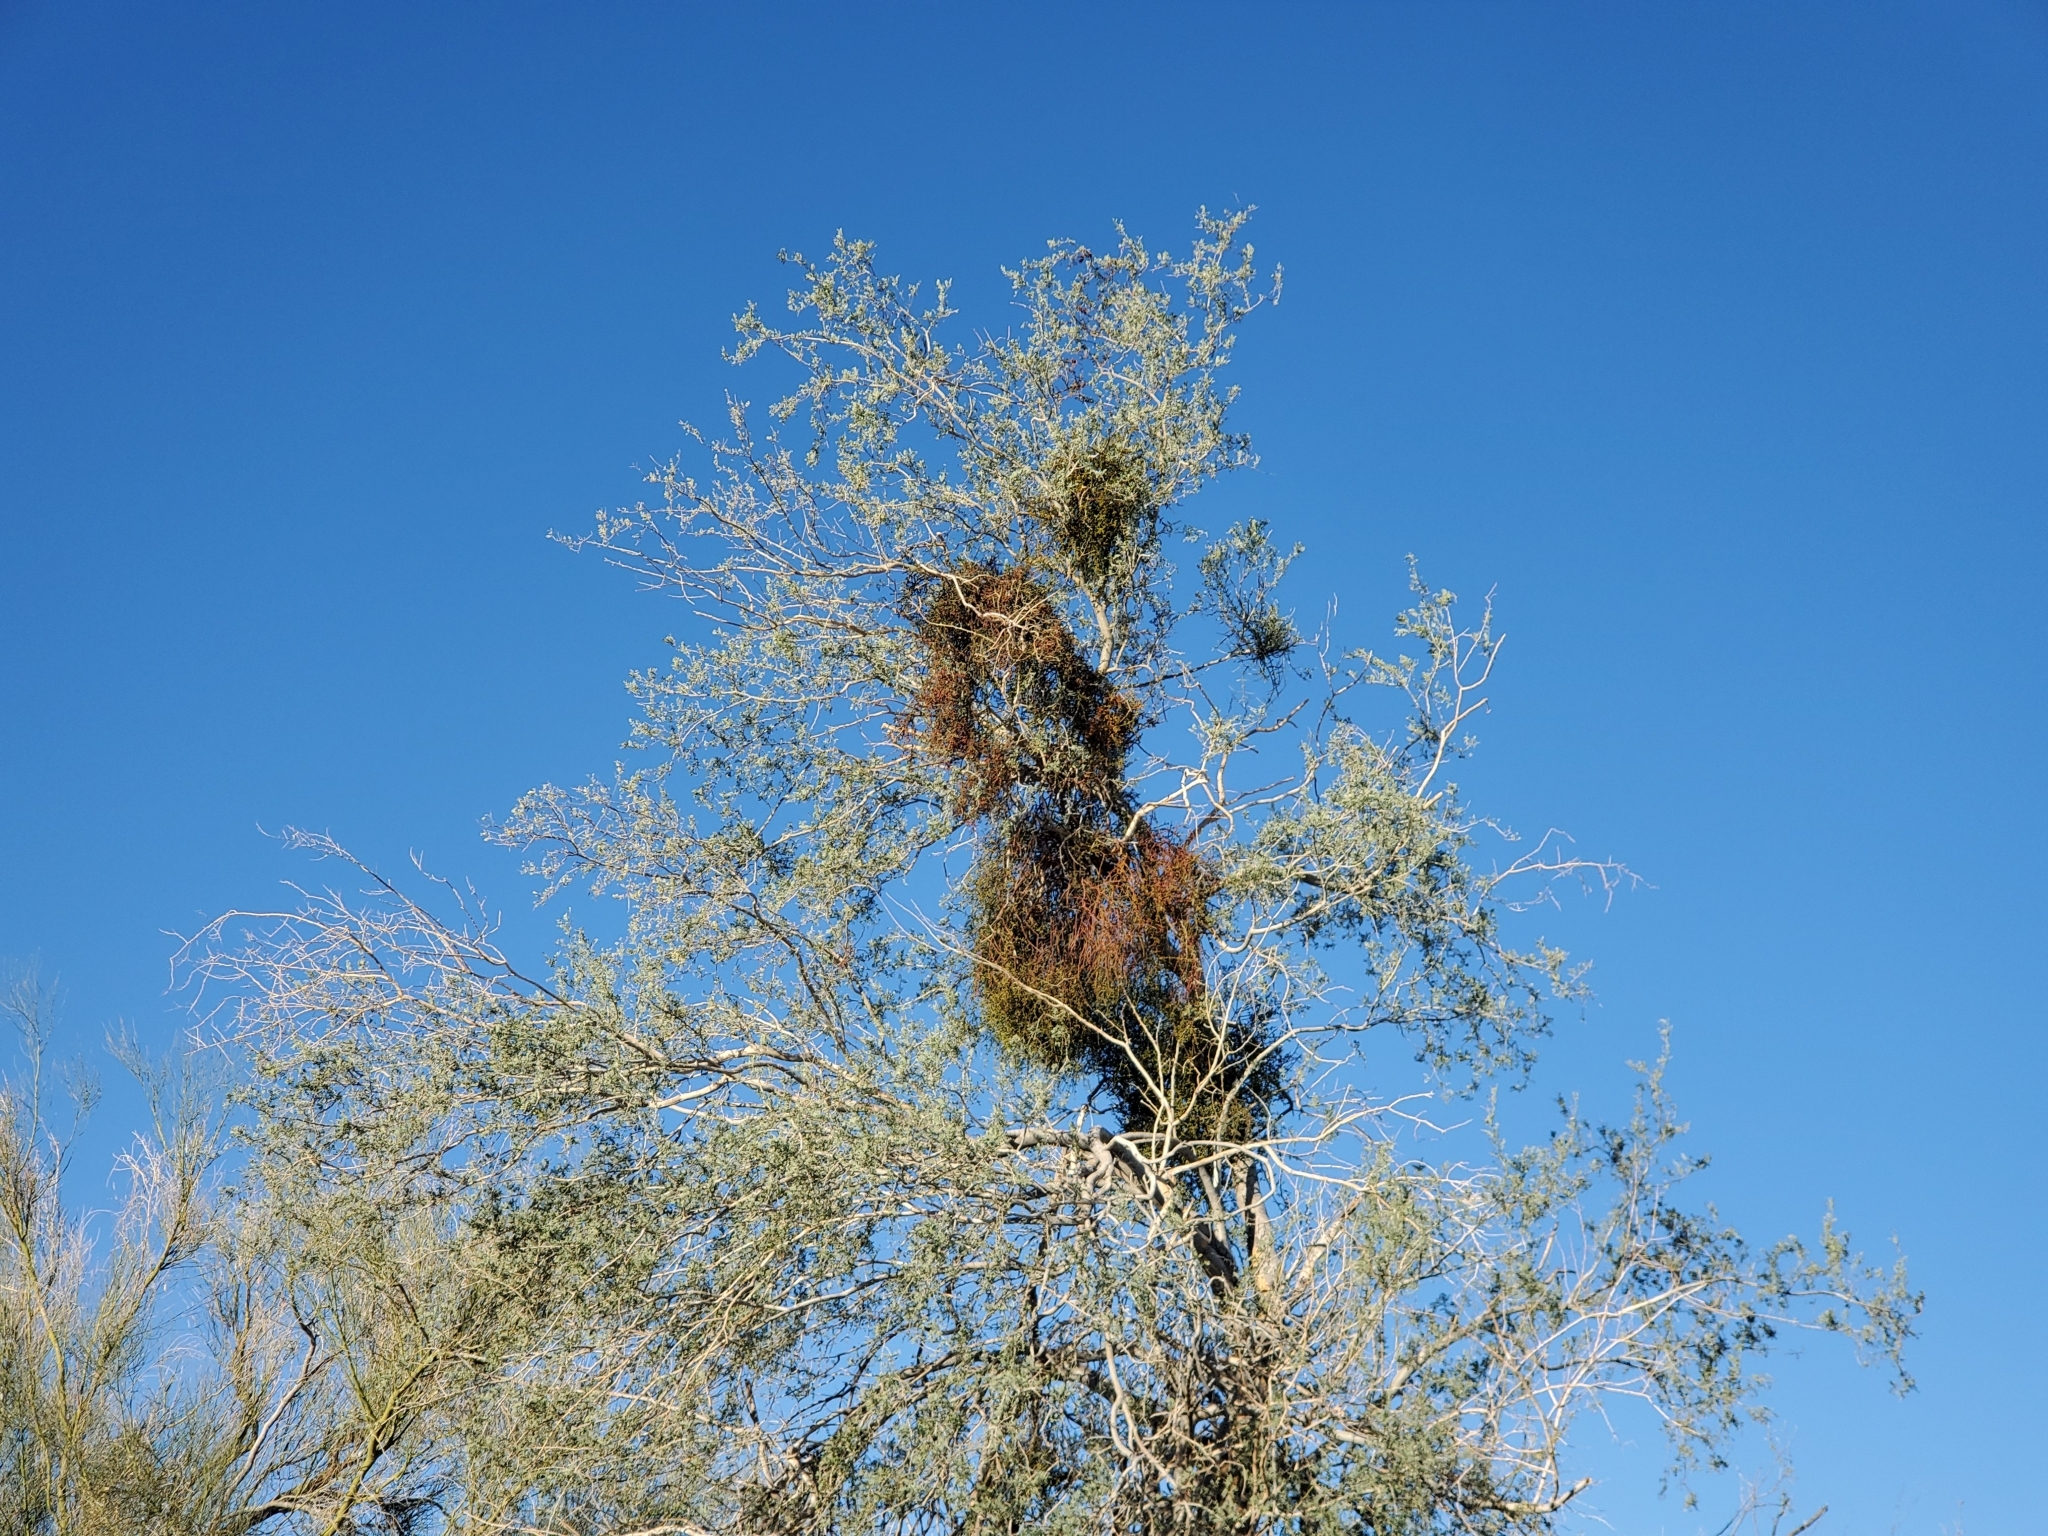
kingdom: Plantae
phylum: Tracheophyta
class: Magnoliopsida
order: Santalales
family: Viscaceae
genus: Phoradendron
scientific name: Phoradendron californicum
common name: Acacia mistletoe
